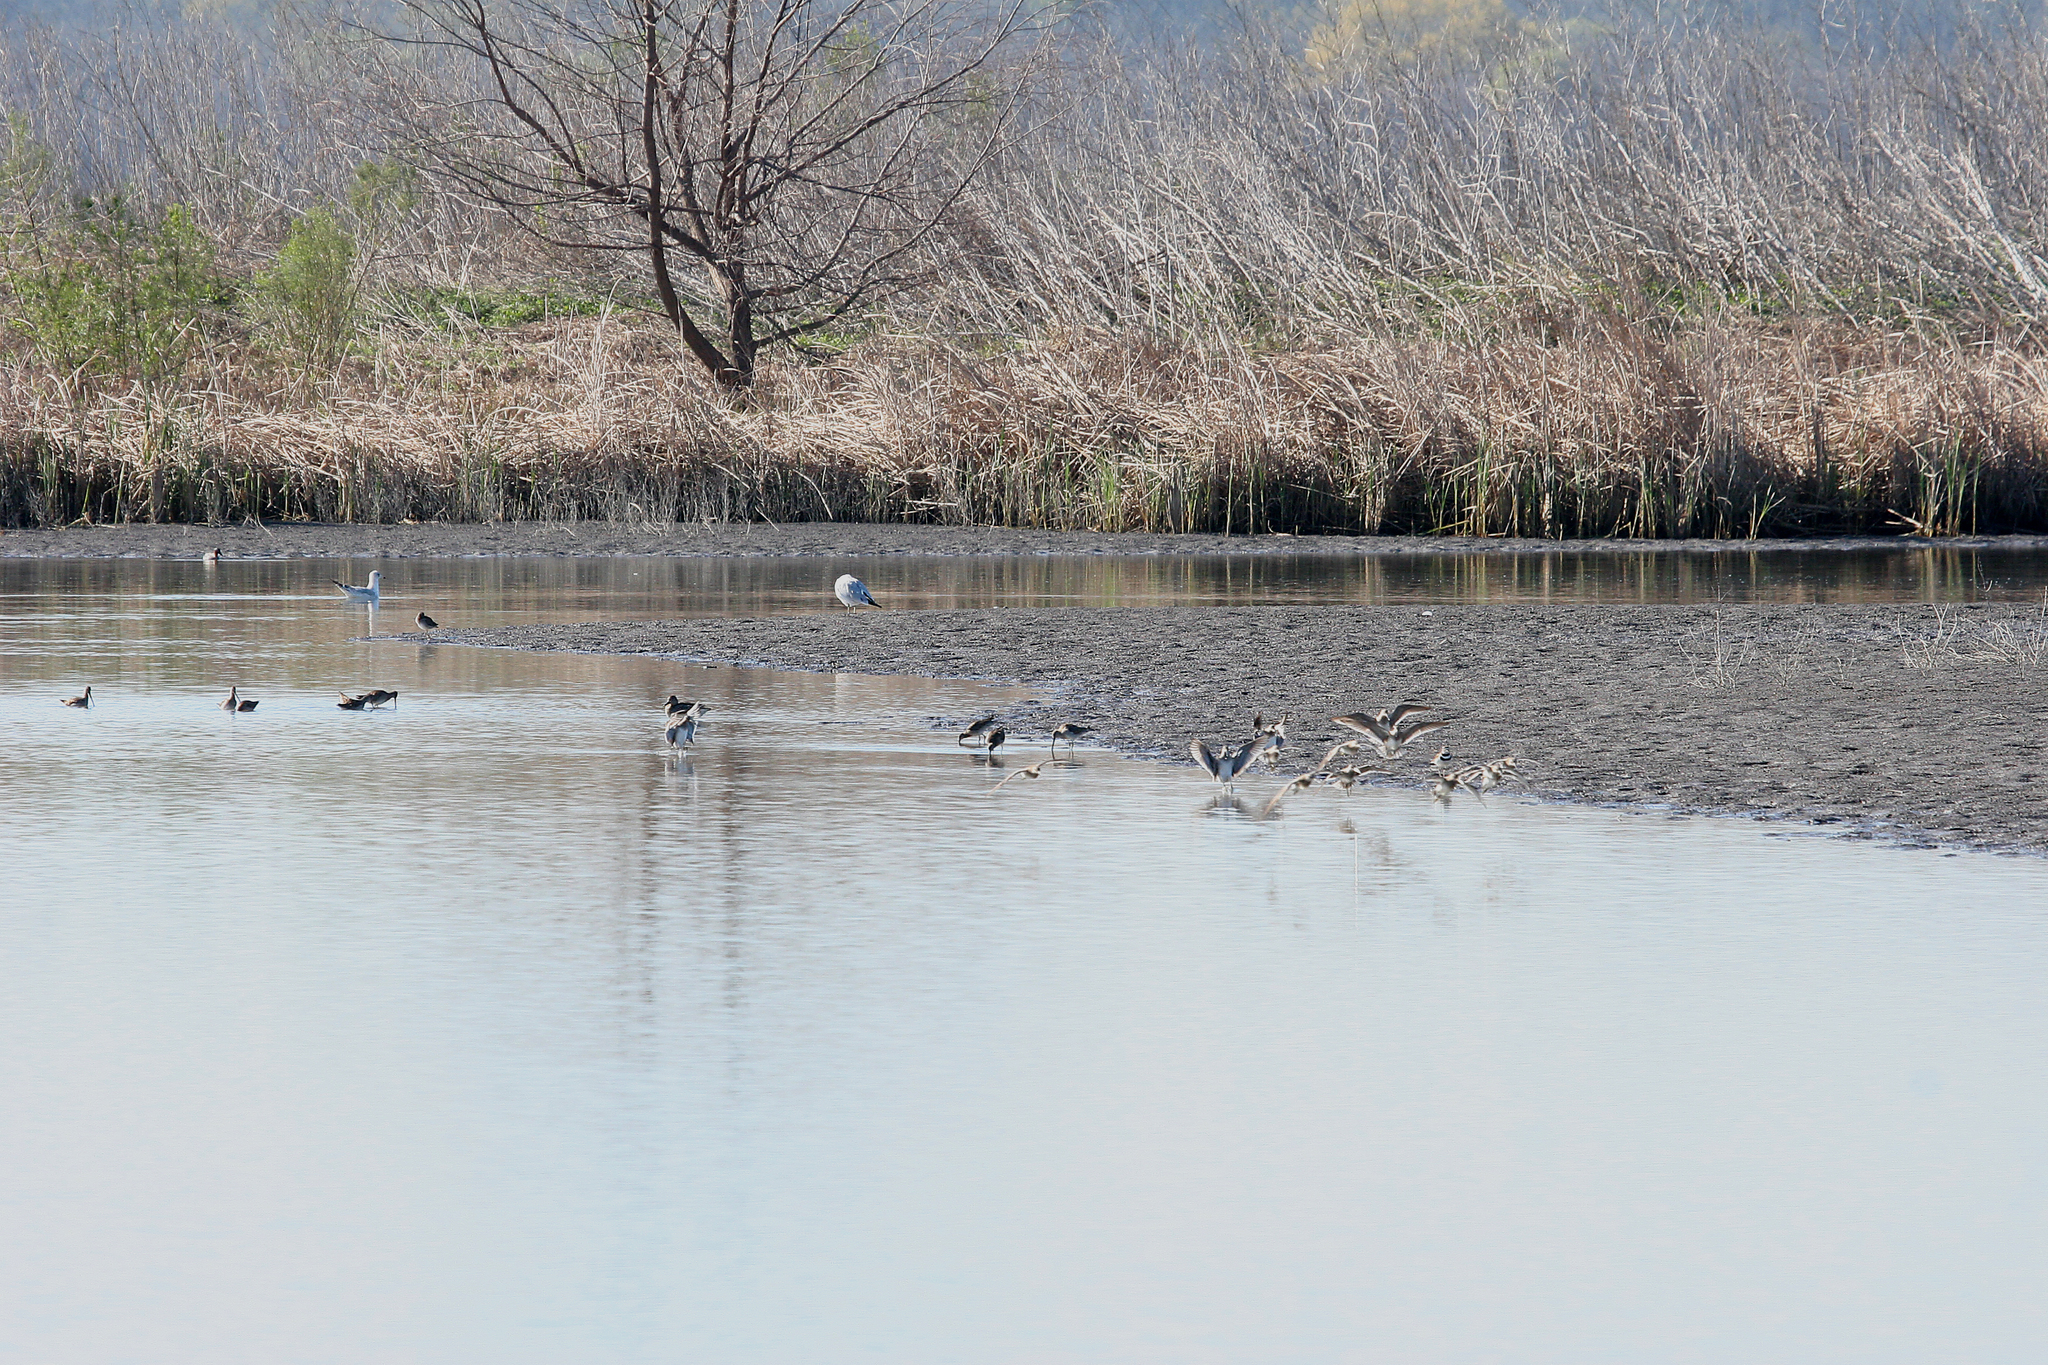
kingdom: Animalia
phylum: Chordata
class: Aves
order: Charadriiformes
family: Laridae
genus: Larus
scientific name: Larus delawarensis
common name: Ring-billed gull
